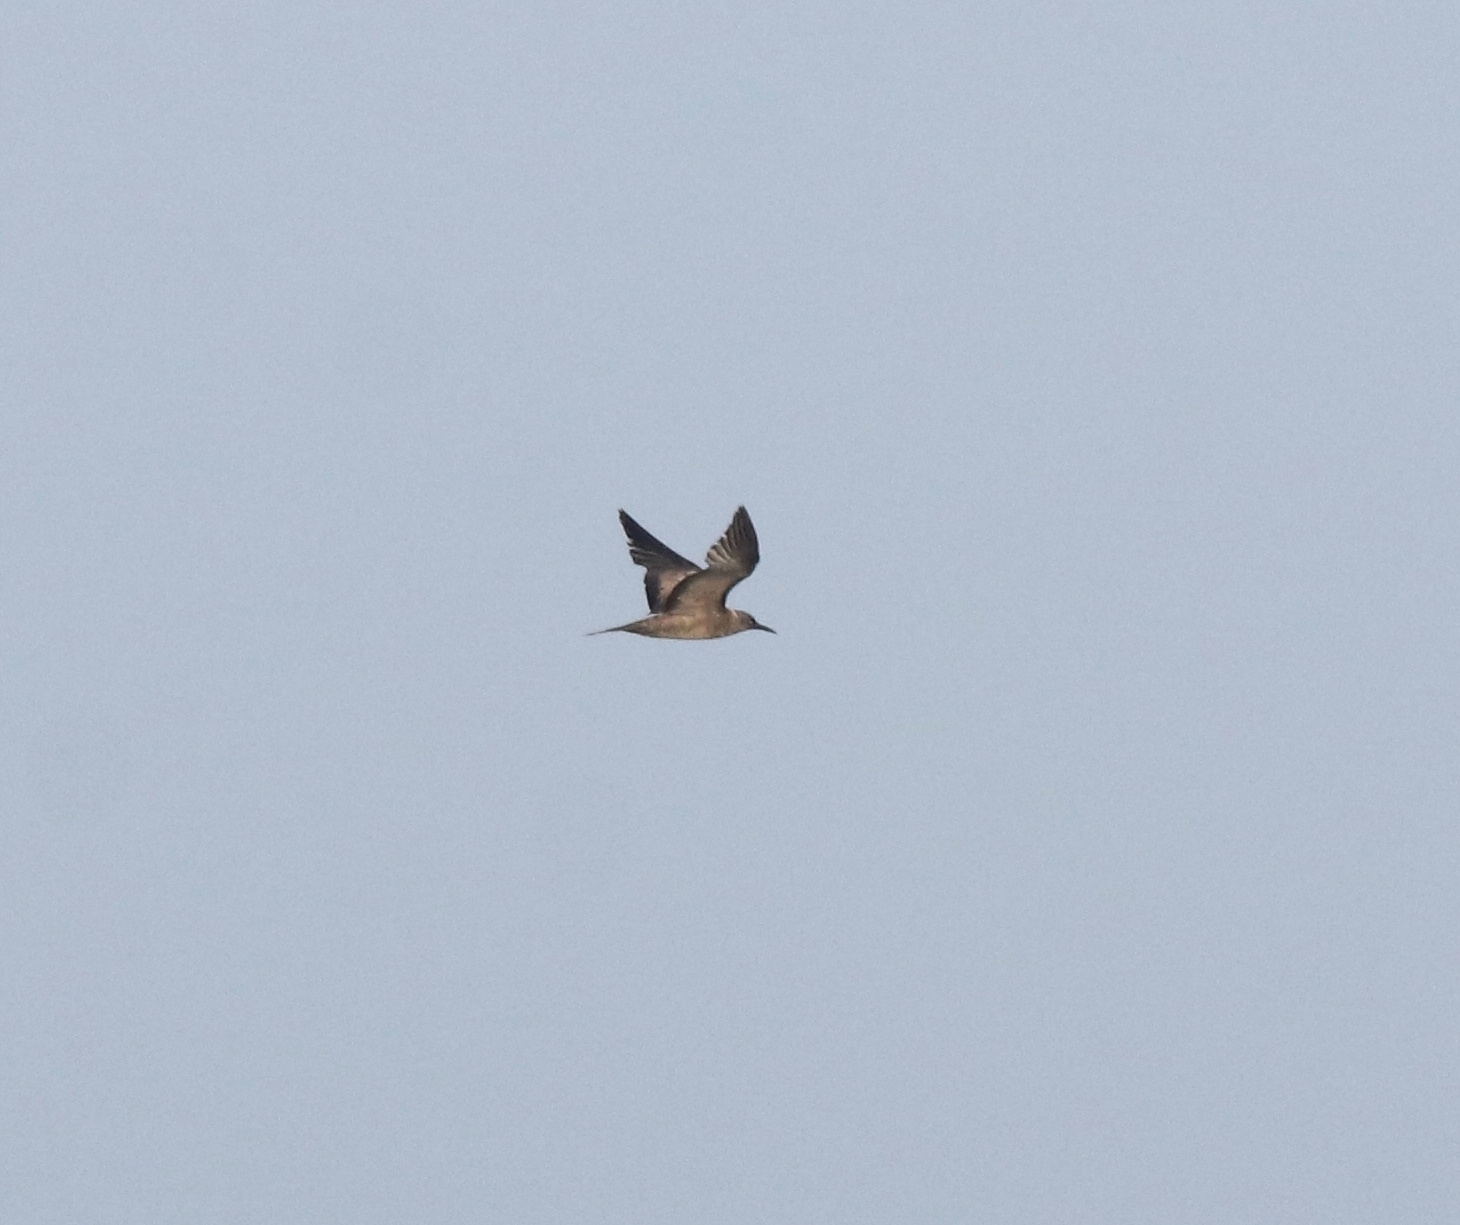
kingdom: Animalia
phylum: Chordata
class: Aves
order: Charadriiformes
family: Laridae
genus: Anous
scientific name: Anous stolidus
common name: Brown noddy
